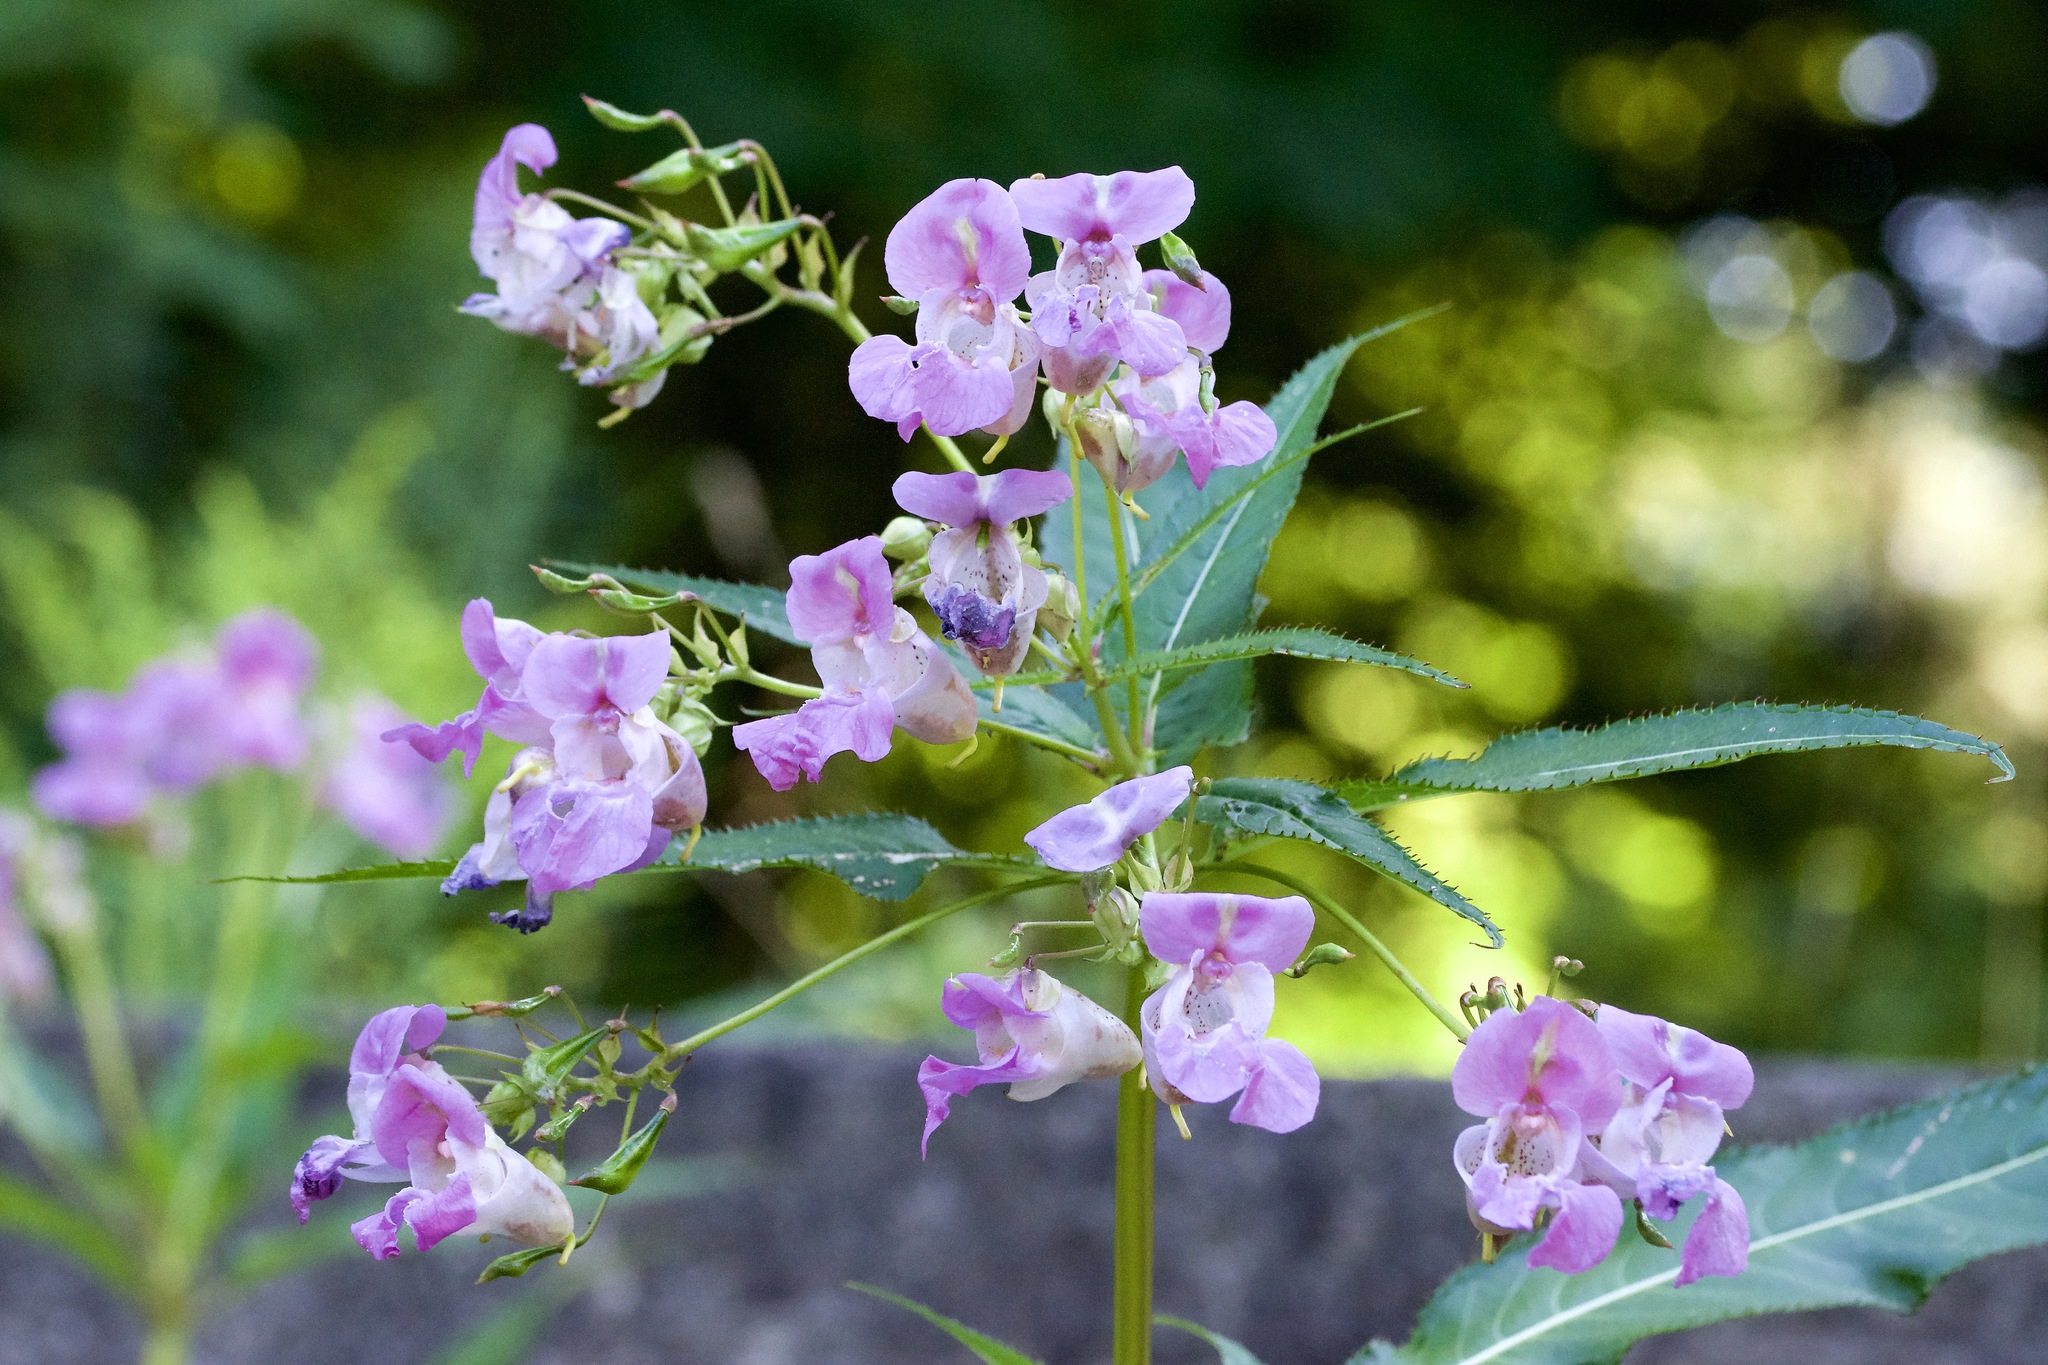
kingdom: Plantae
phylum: Tracheophyta
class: Magnoliopsida
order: Ericales
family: Balsaminaceae
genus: Impatiens
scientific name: Impatiens glandulifera
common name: Himalayan balsam
